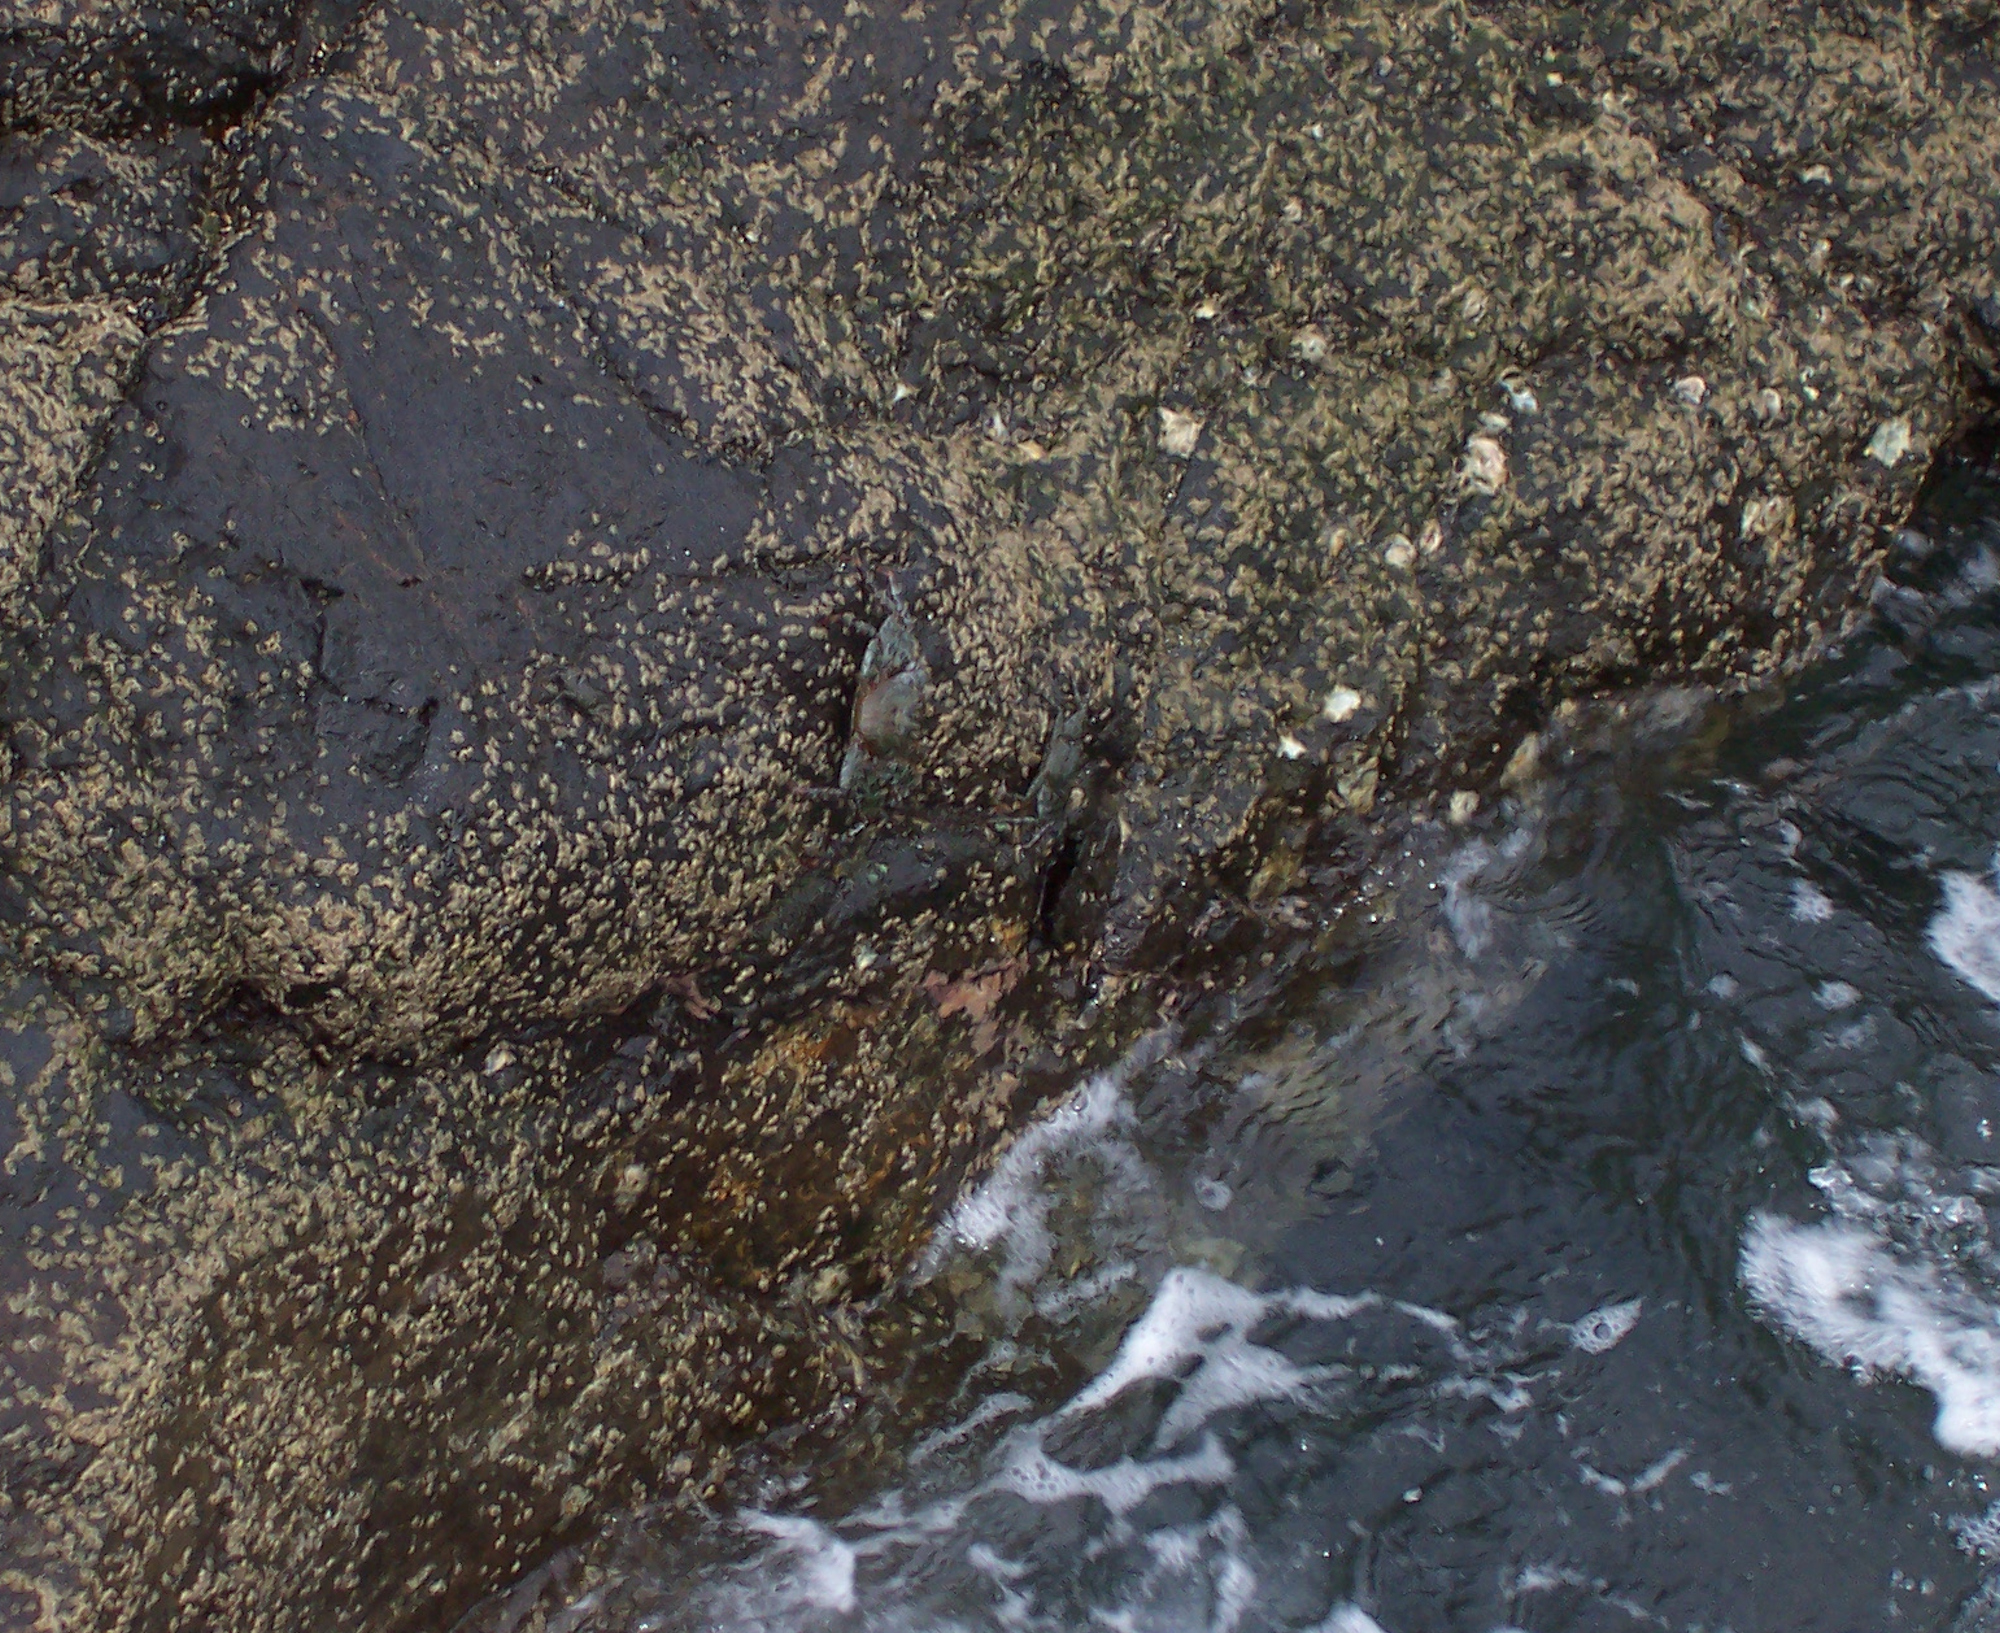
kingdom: Animalia
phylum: Arthropoda
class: Malacostraca
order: Decapoda
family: Grapsidae
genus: Grapsus
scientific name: Grapsus grapsus
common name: Sally lightfoot
